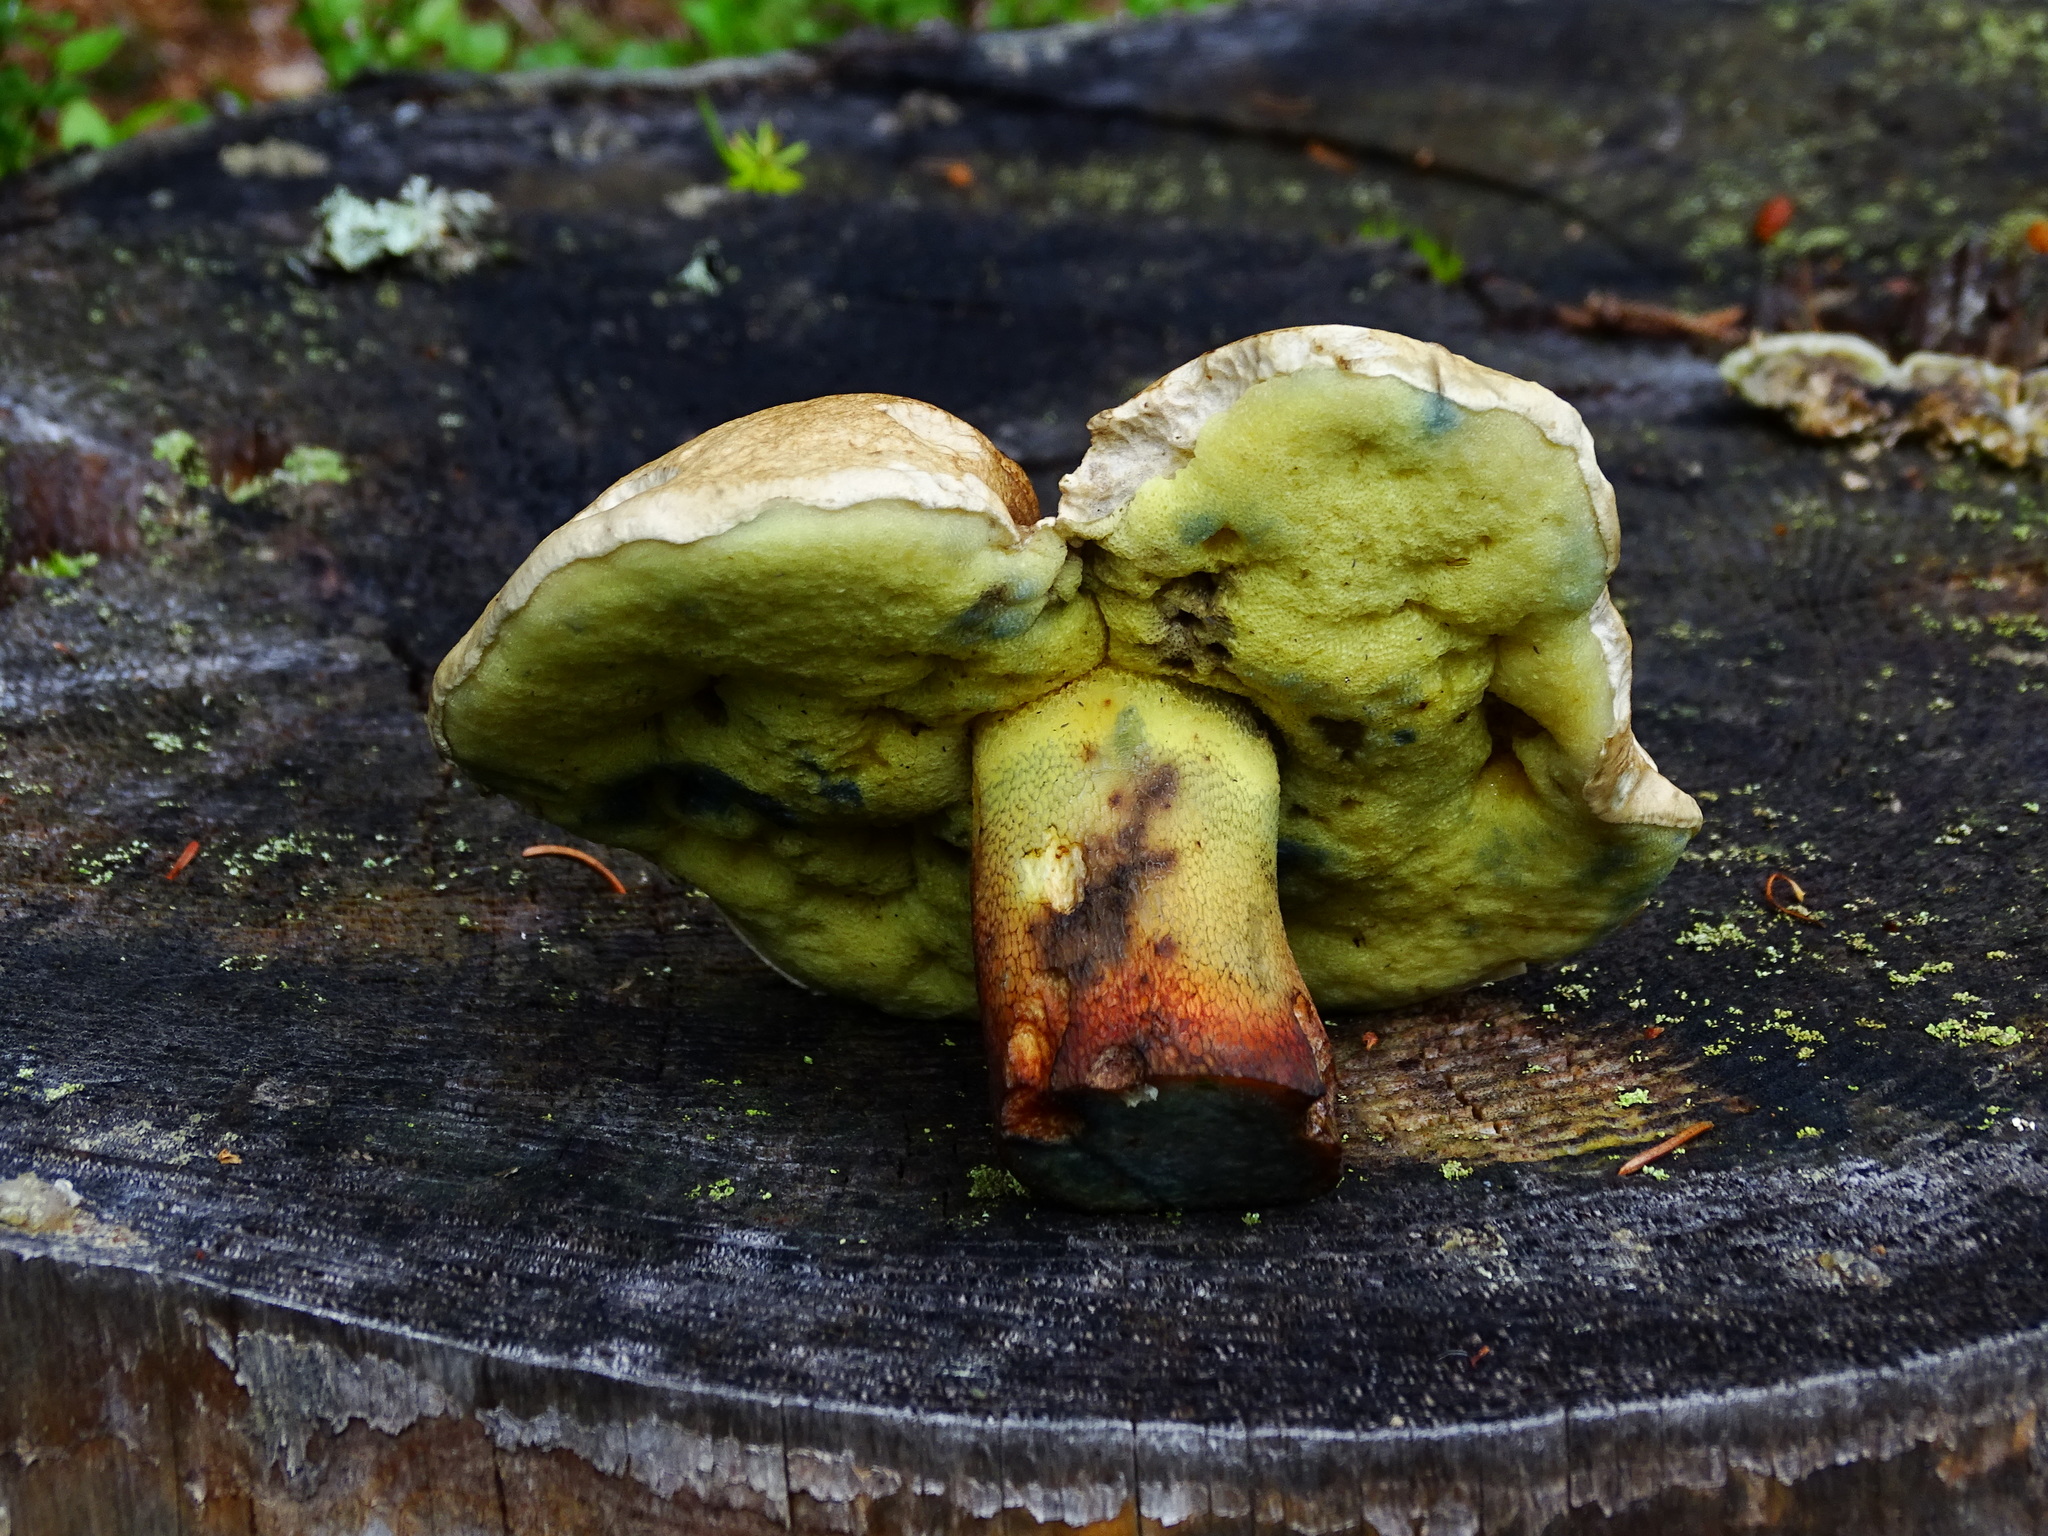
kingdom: Fungi
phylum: Basidiomycota
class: Agaricomycetes
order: Boletales
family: Boletaceae
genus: Caloboletus
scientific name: Caloboletus calopus
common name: Bitter beech bolete
